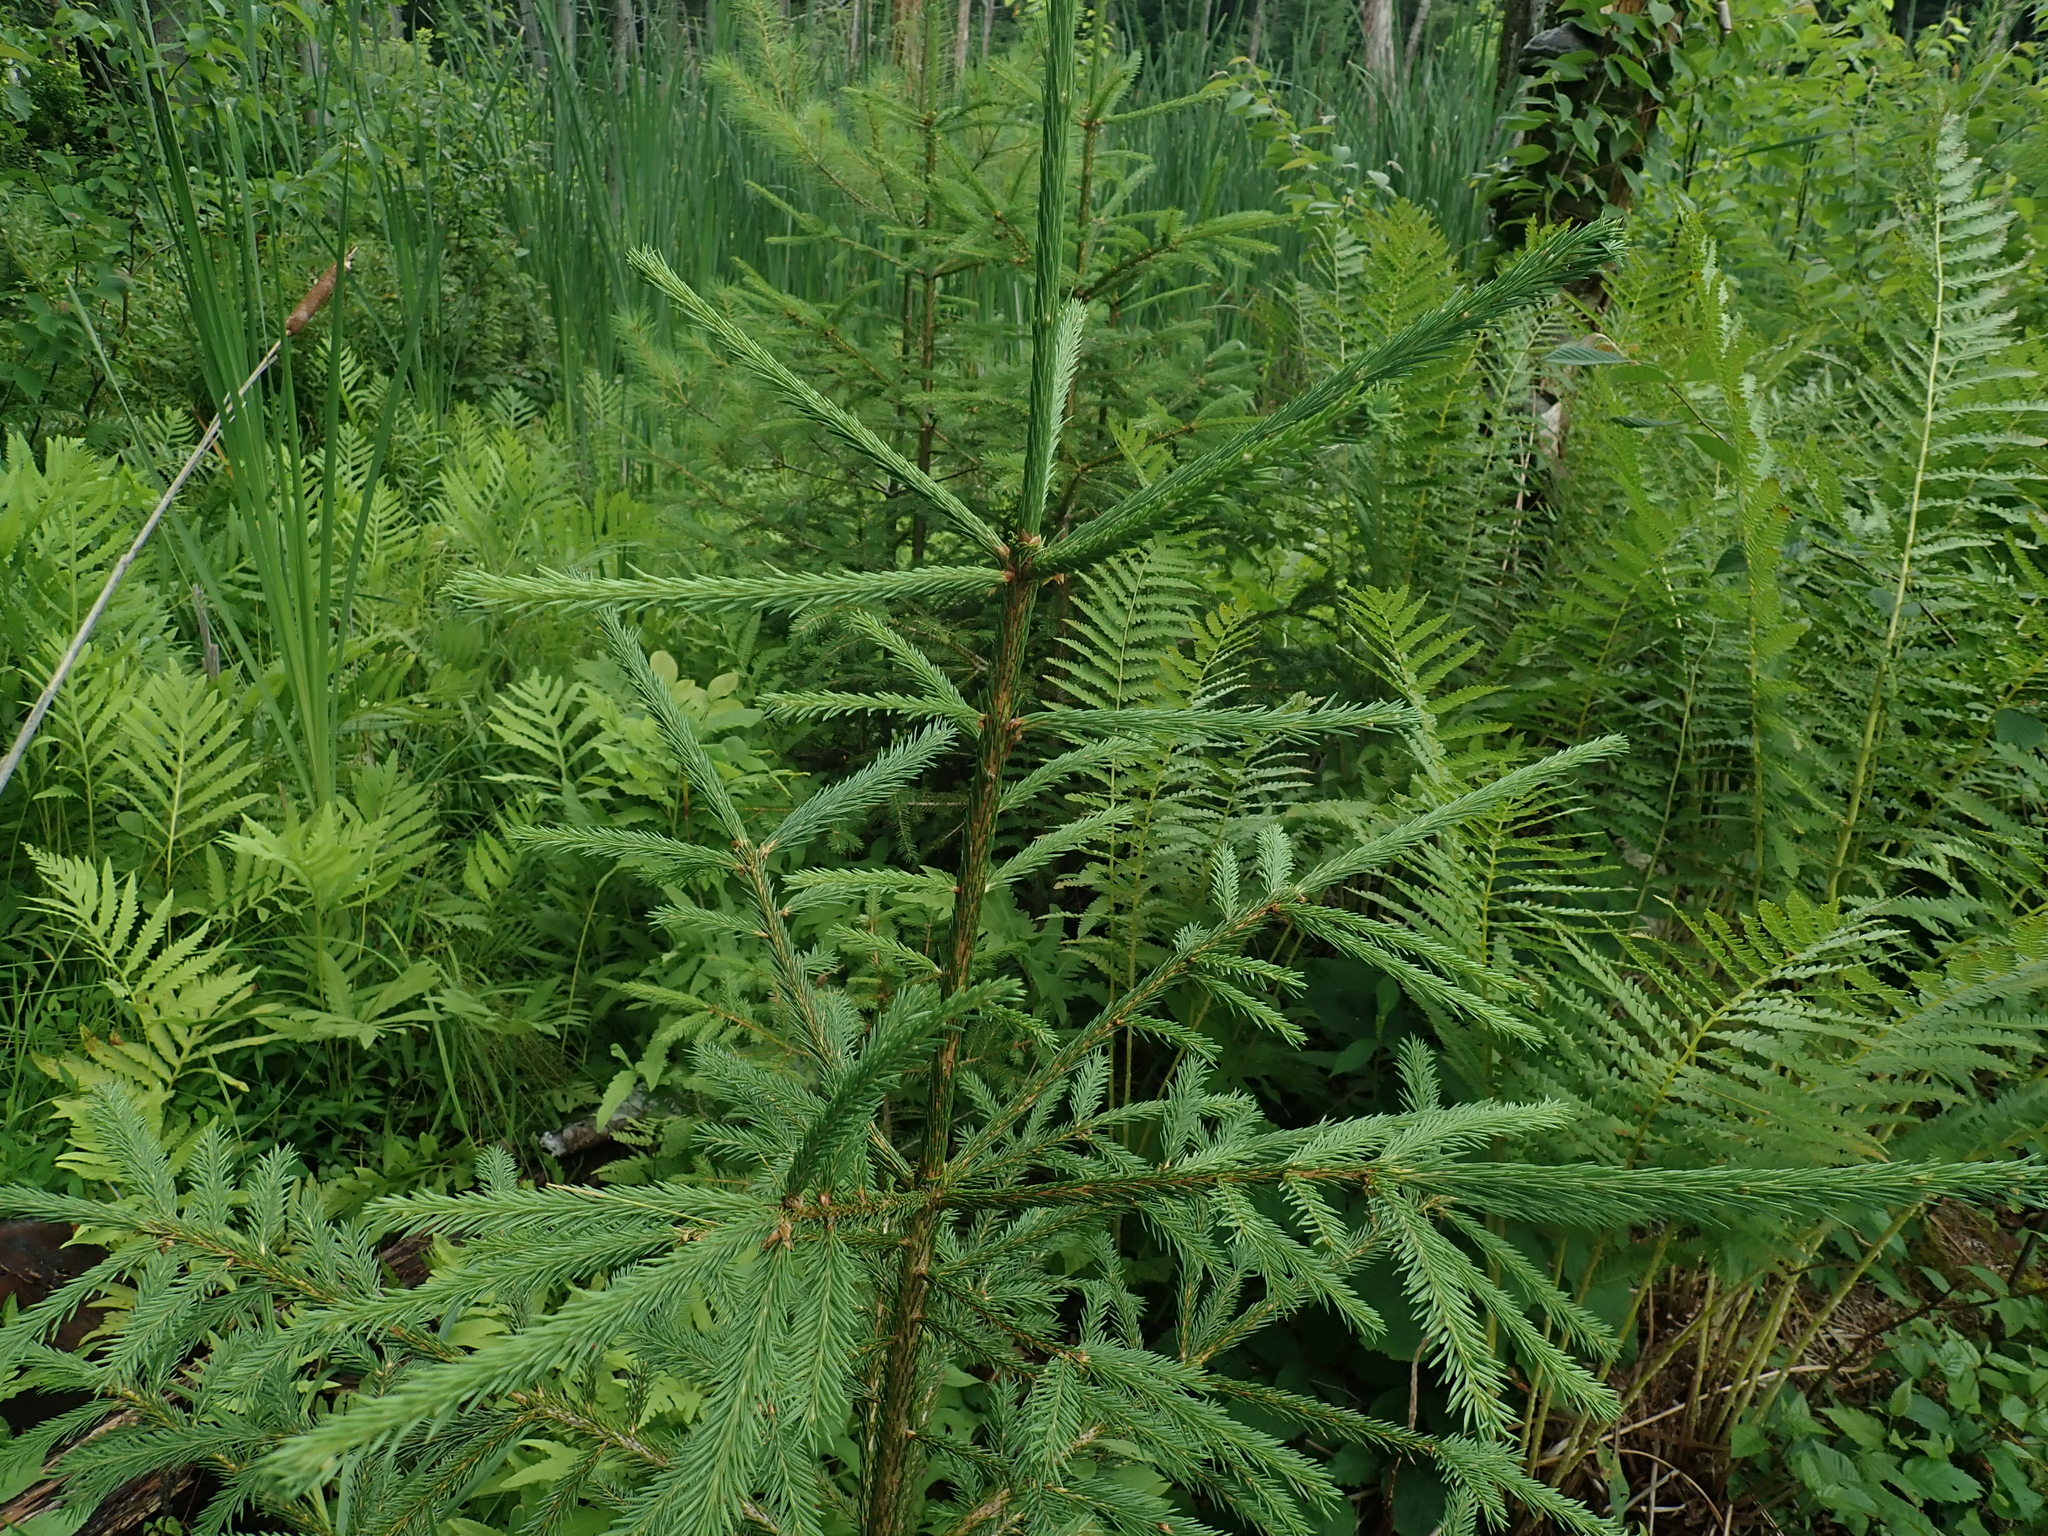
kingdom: Plantae
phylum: Tracheophyta
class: Pinopsida
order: Pinales
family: Pinaceae
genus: Picea
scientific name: Picea abies
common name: Norway spruce
